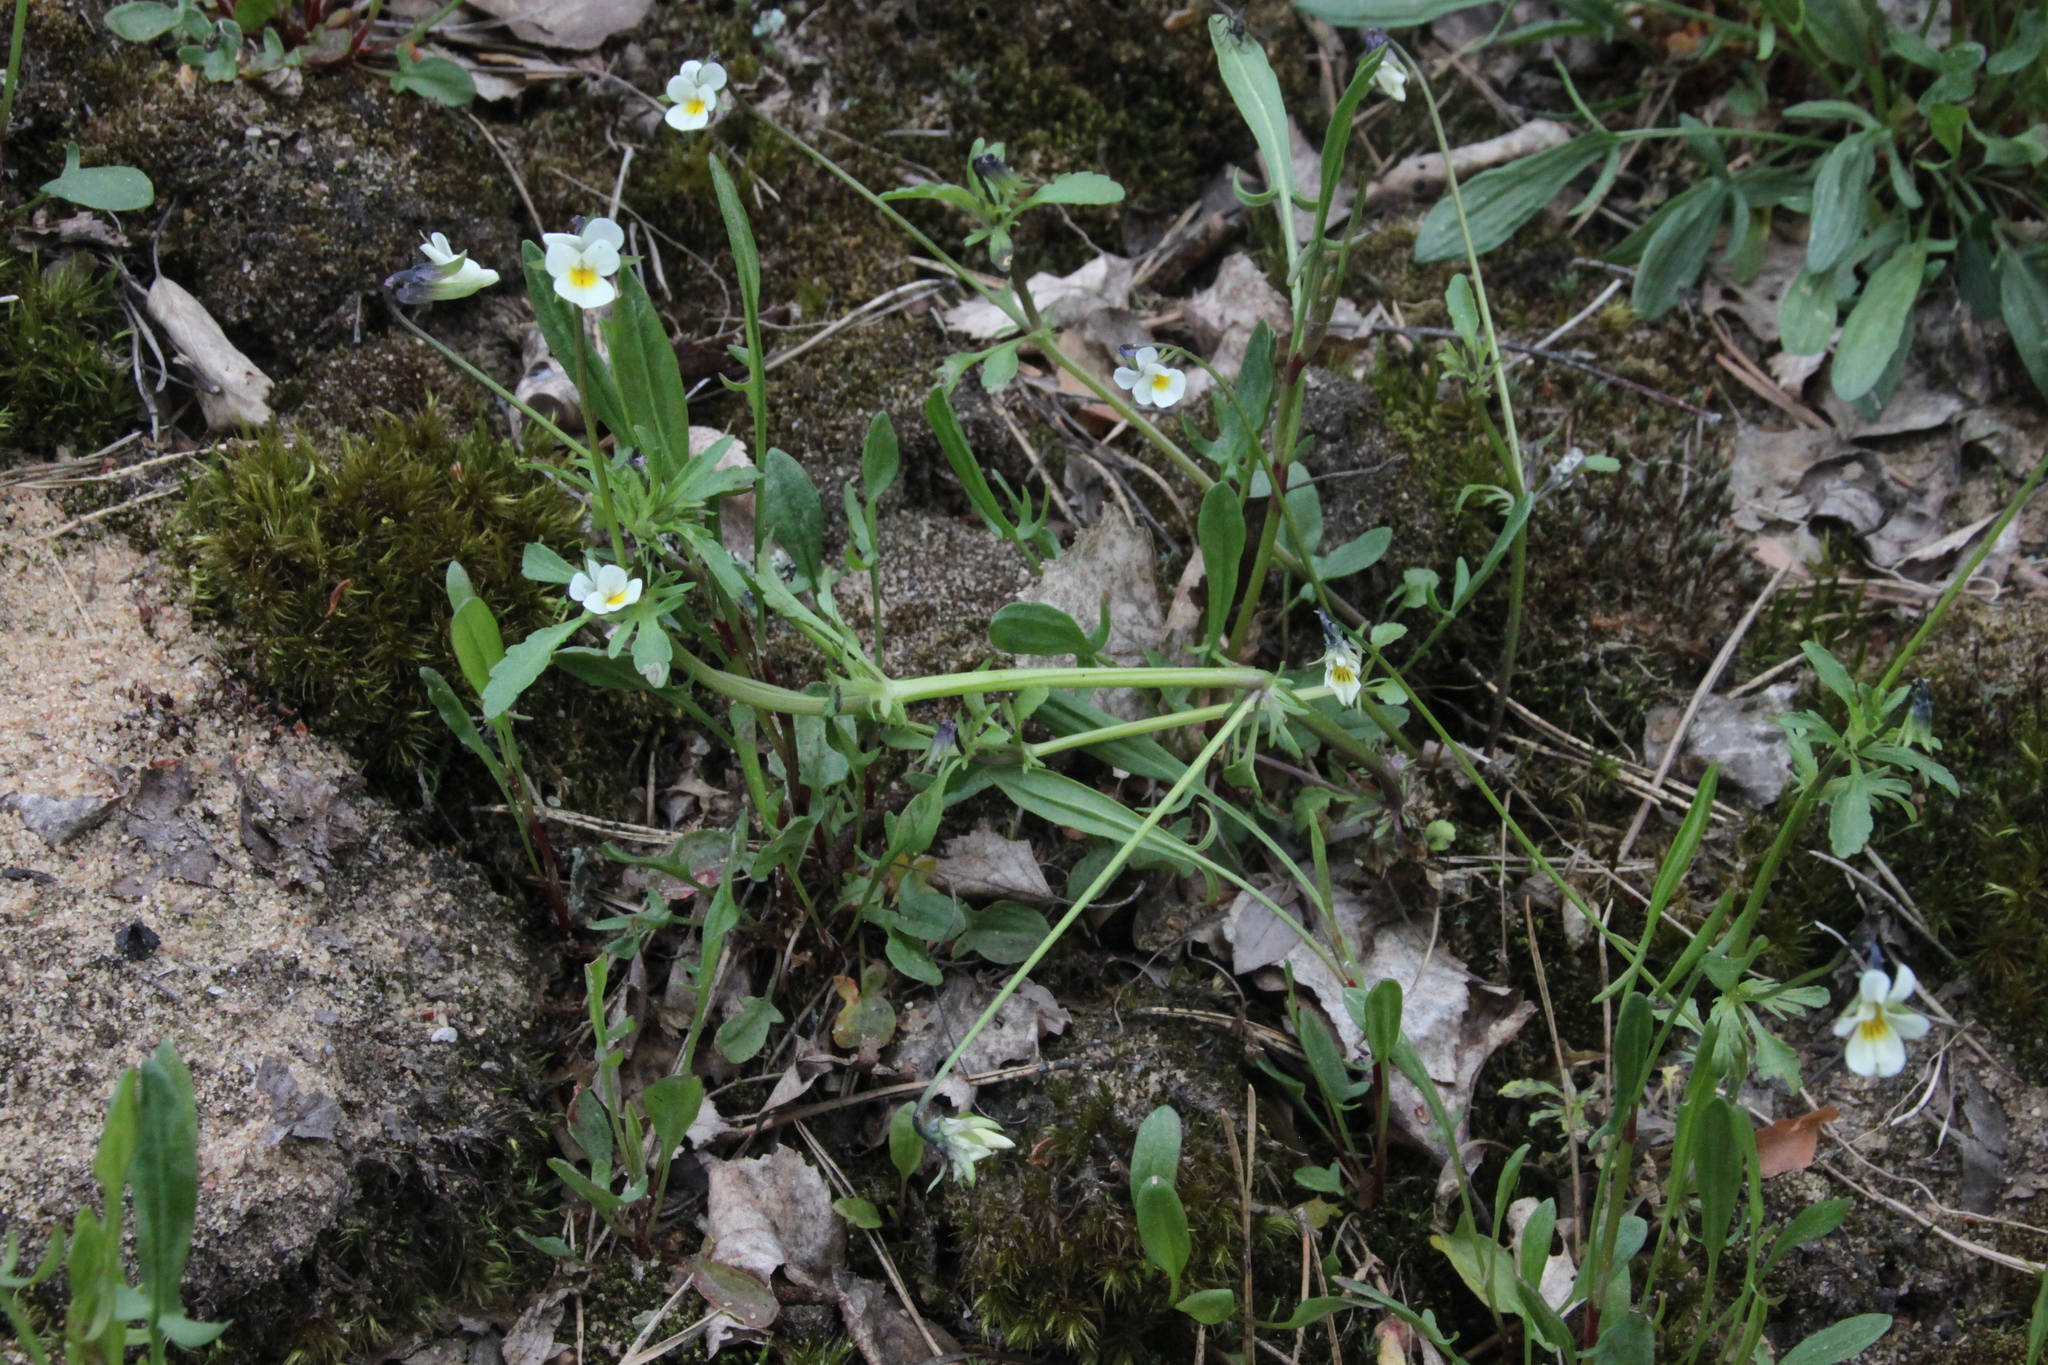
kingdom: Plantae
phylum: Tracheophyta
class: Magnoliopsida
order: Malpighiales
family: Violaceae
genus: Viola
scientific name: Viola arvensis
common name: Field pansy
